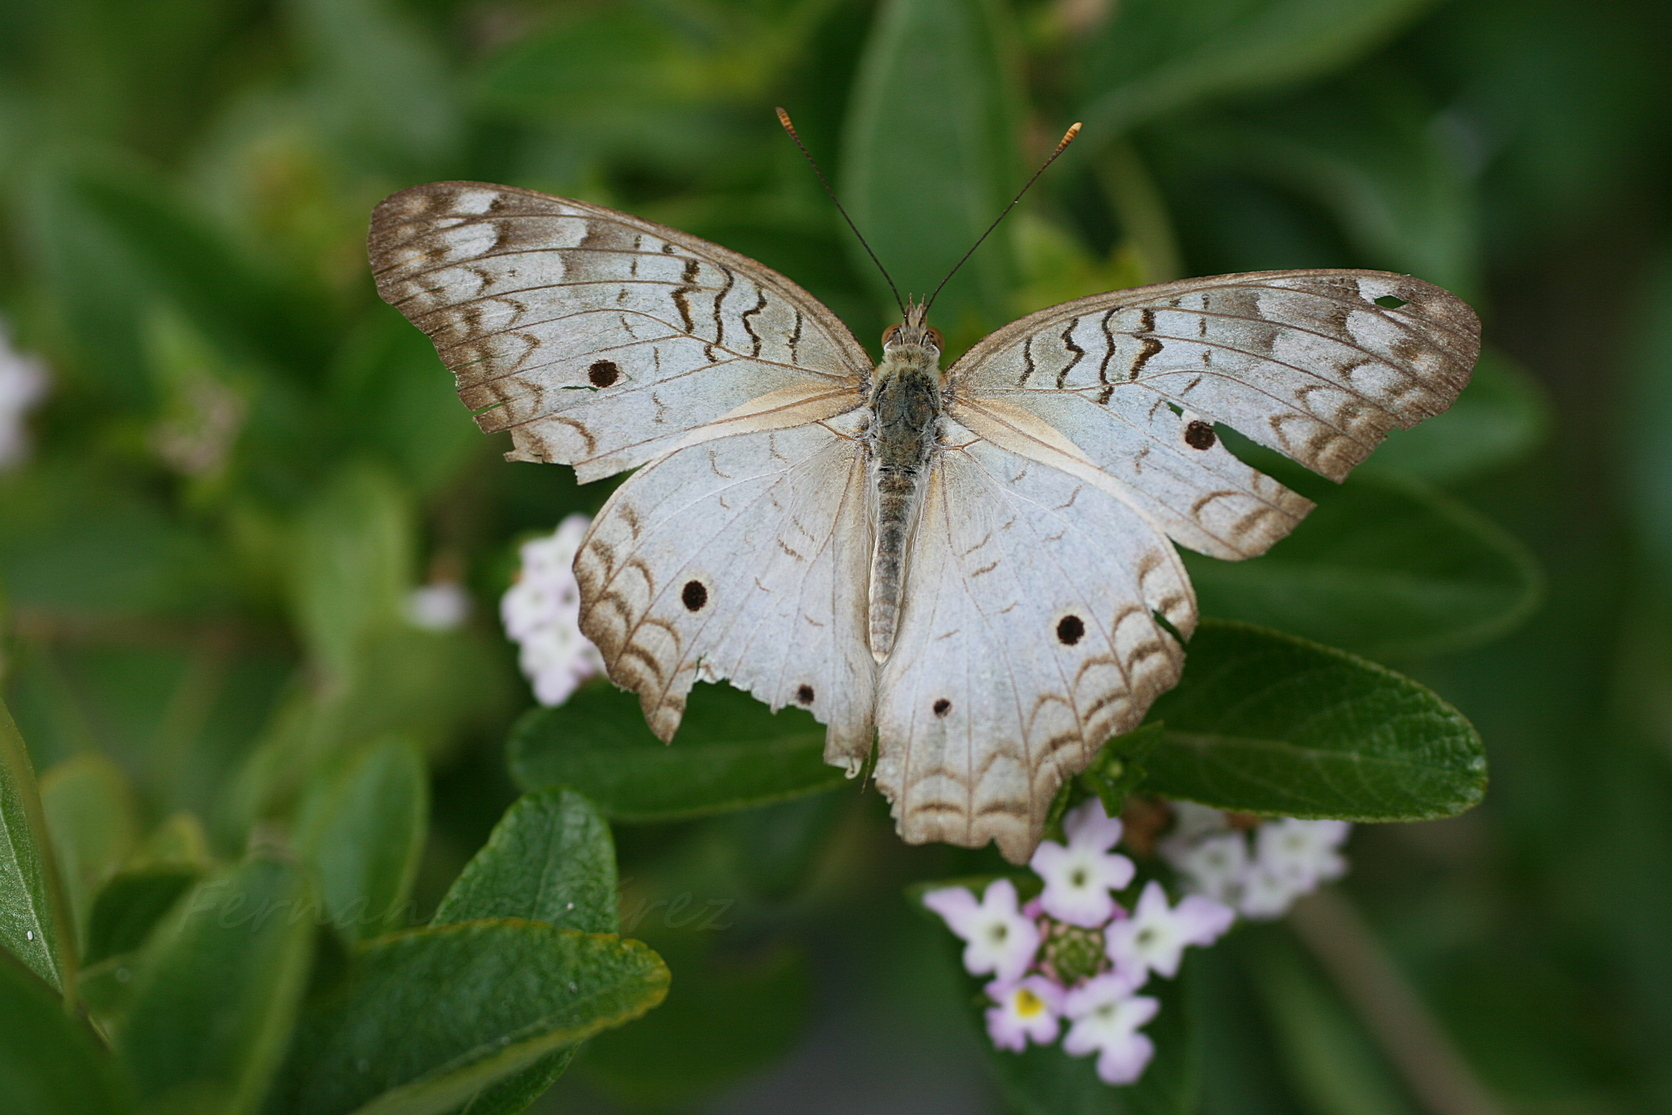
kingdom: Animalia
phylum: Arthropoda
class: Insecta
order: Lepidoptera
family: Nymphalidae
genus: Anartia
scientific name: Anartia jatrophae
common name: White peacock
